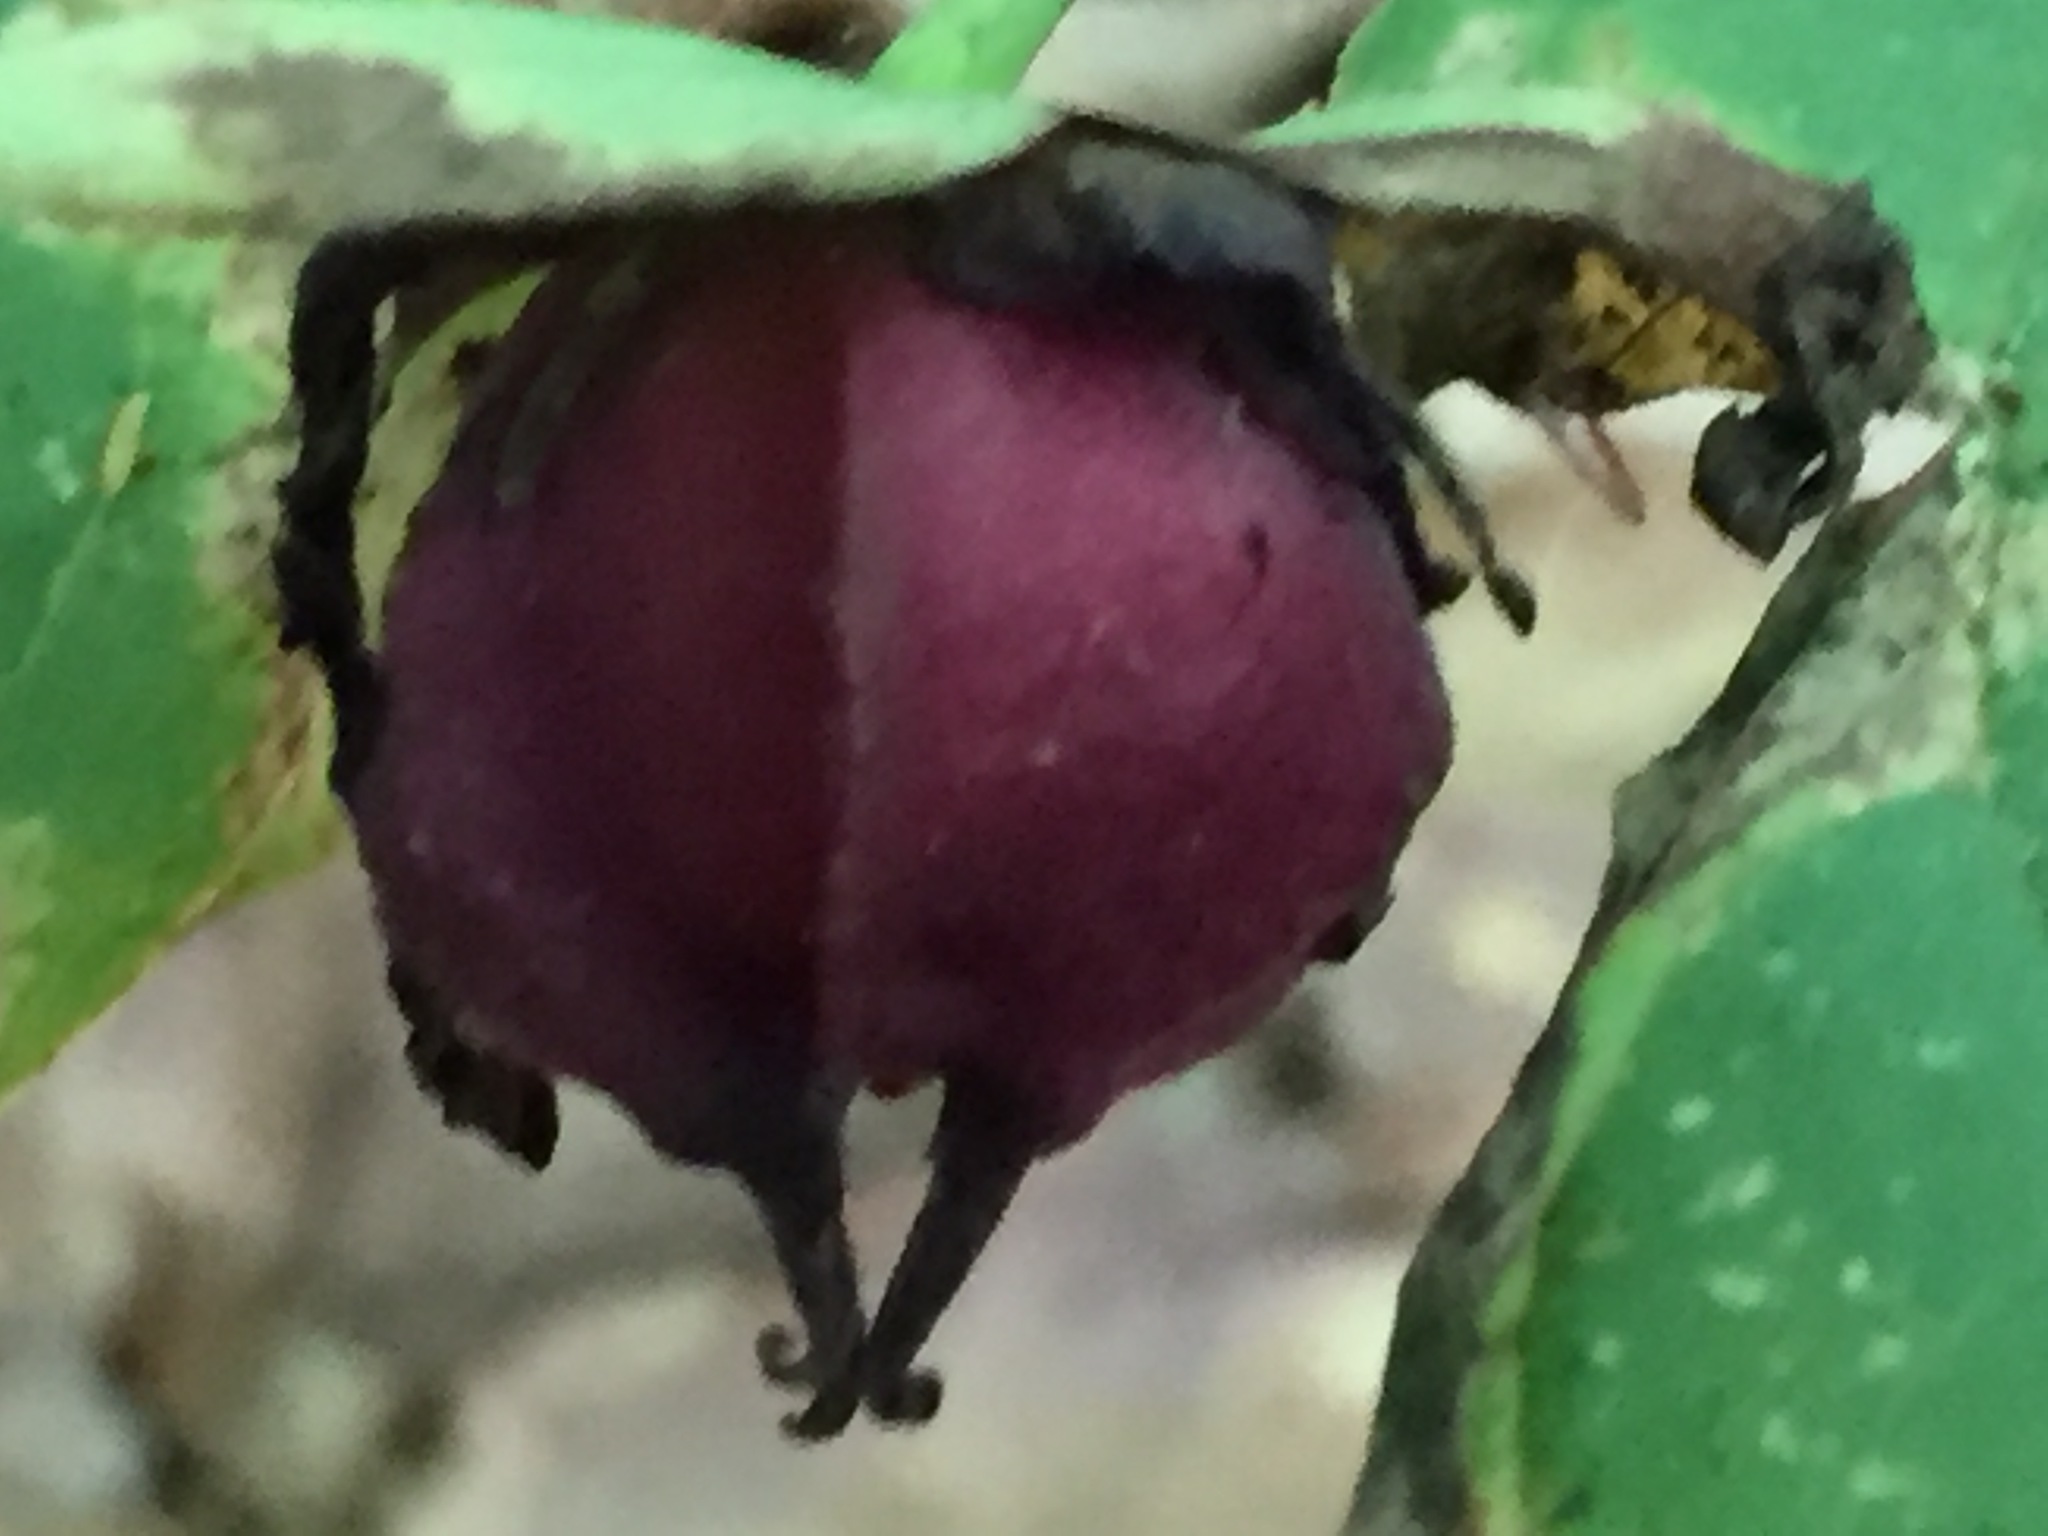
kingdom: Plantae
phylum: Tracheophyta
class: Liliopsida
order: Liliales
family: Melanthiaceae
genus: Trillium
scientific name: Trillium erectum
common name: Purple trillium
